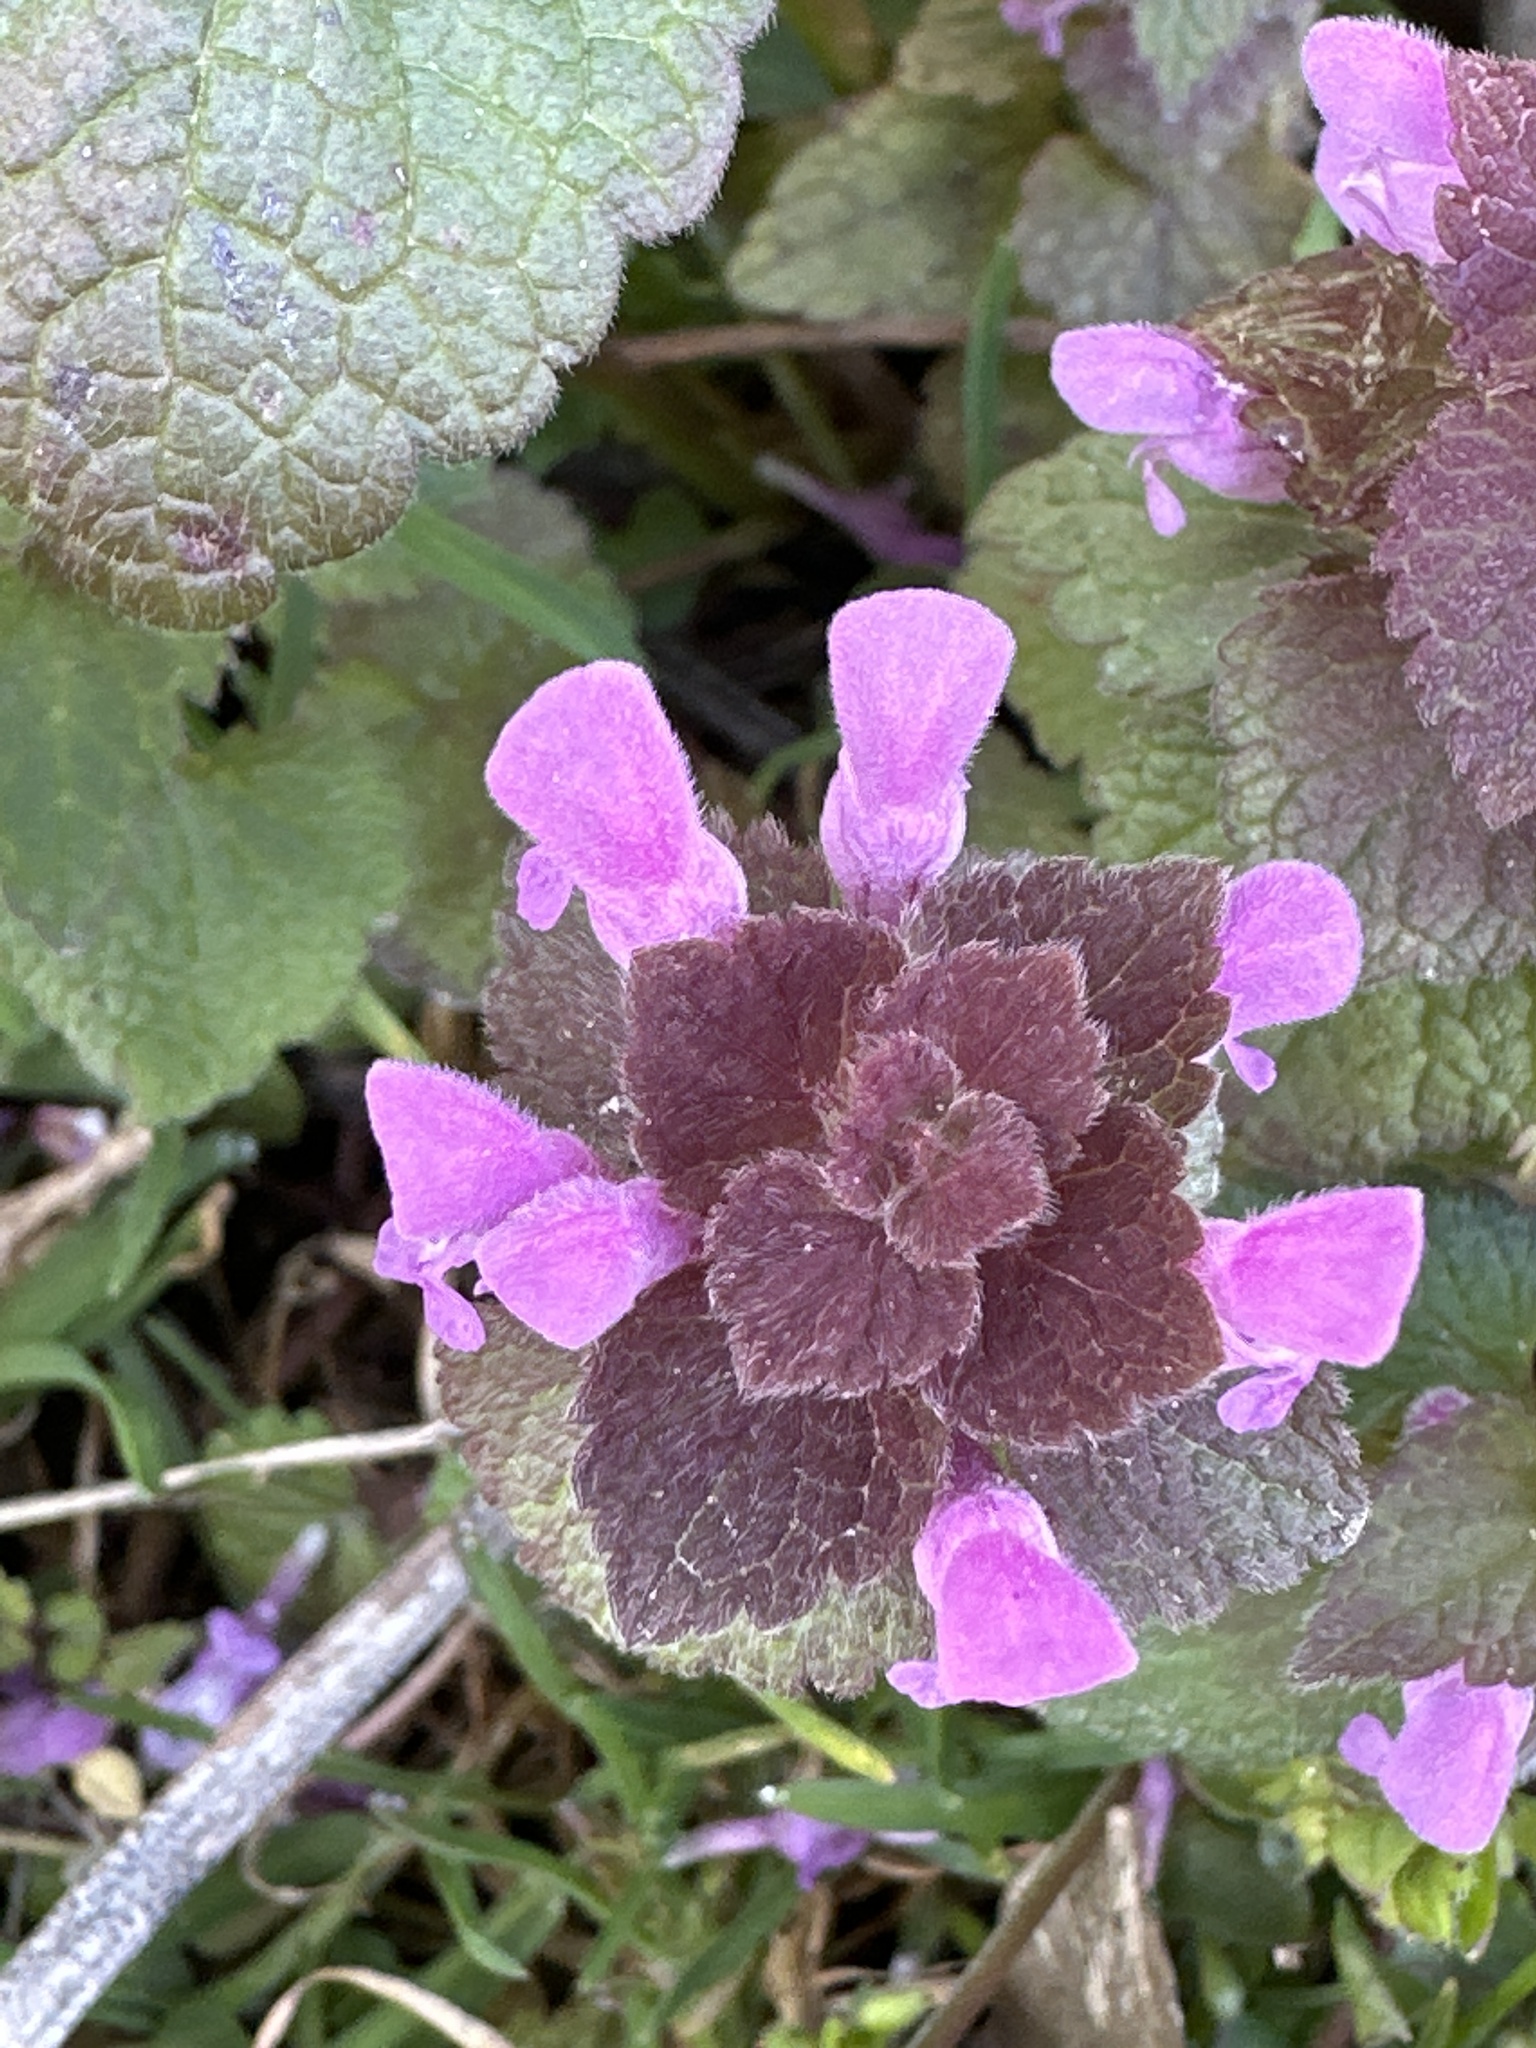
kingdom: Plantae
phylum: Tracheophyta
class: Magnoliopsida
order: Lamiales
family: Lamiaceae
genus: Lamium
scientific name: Lamium purpureum
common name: Red dead-nettle
